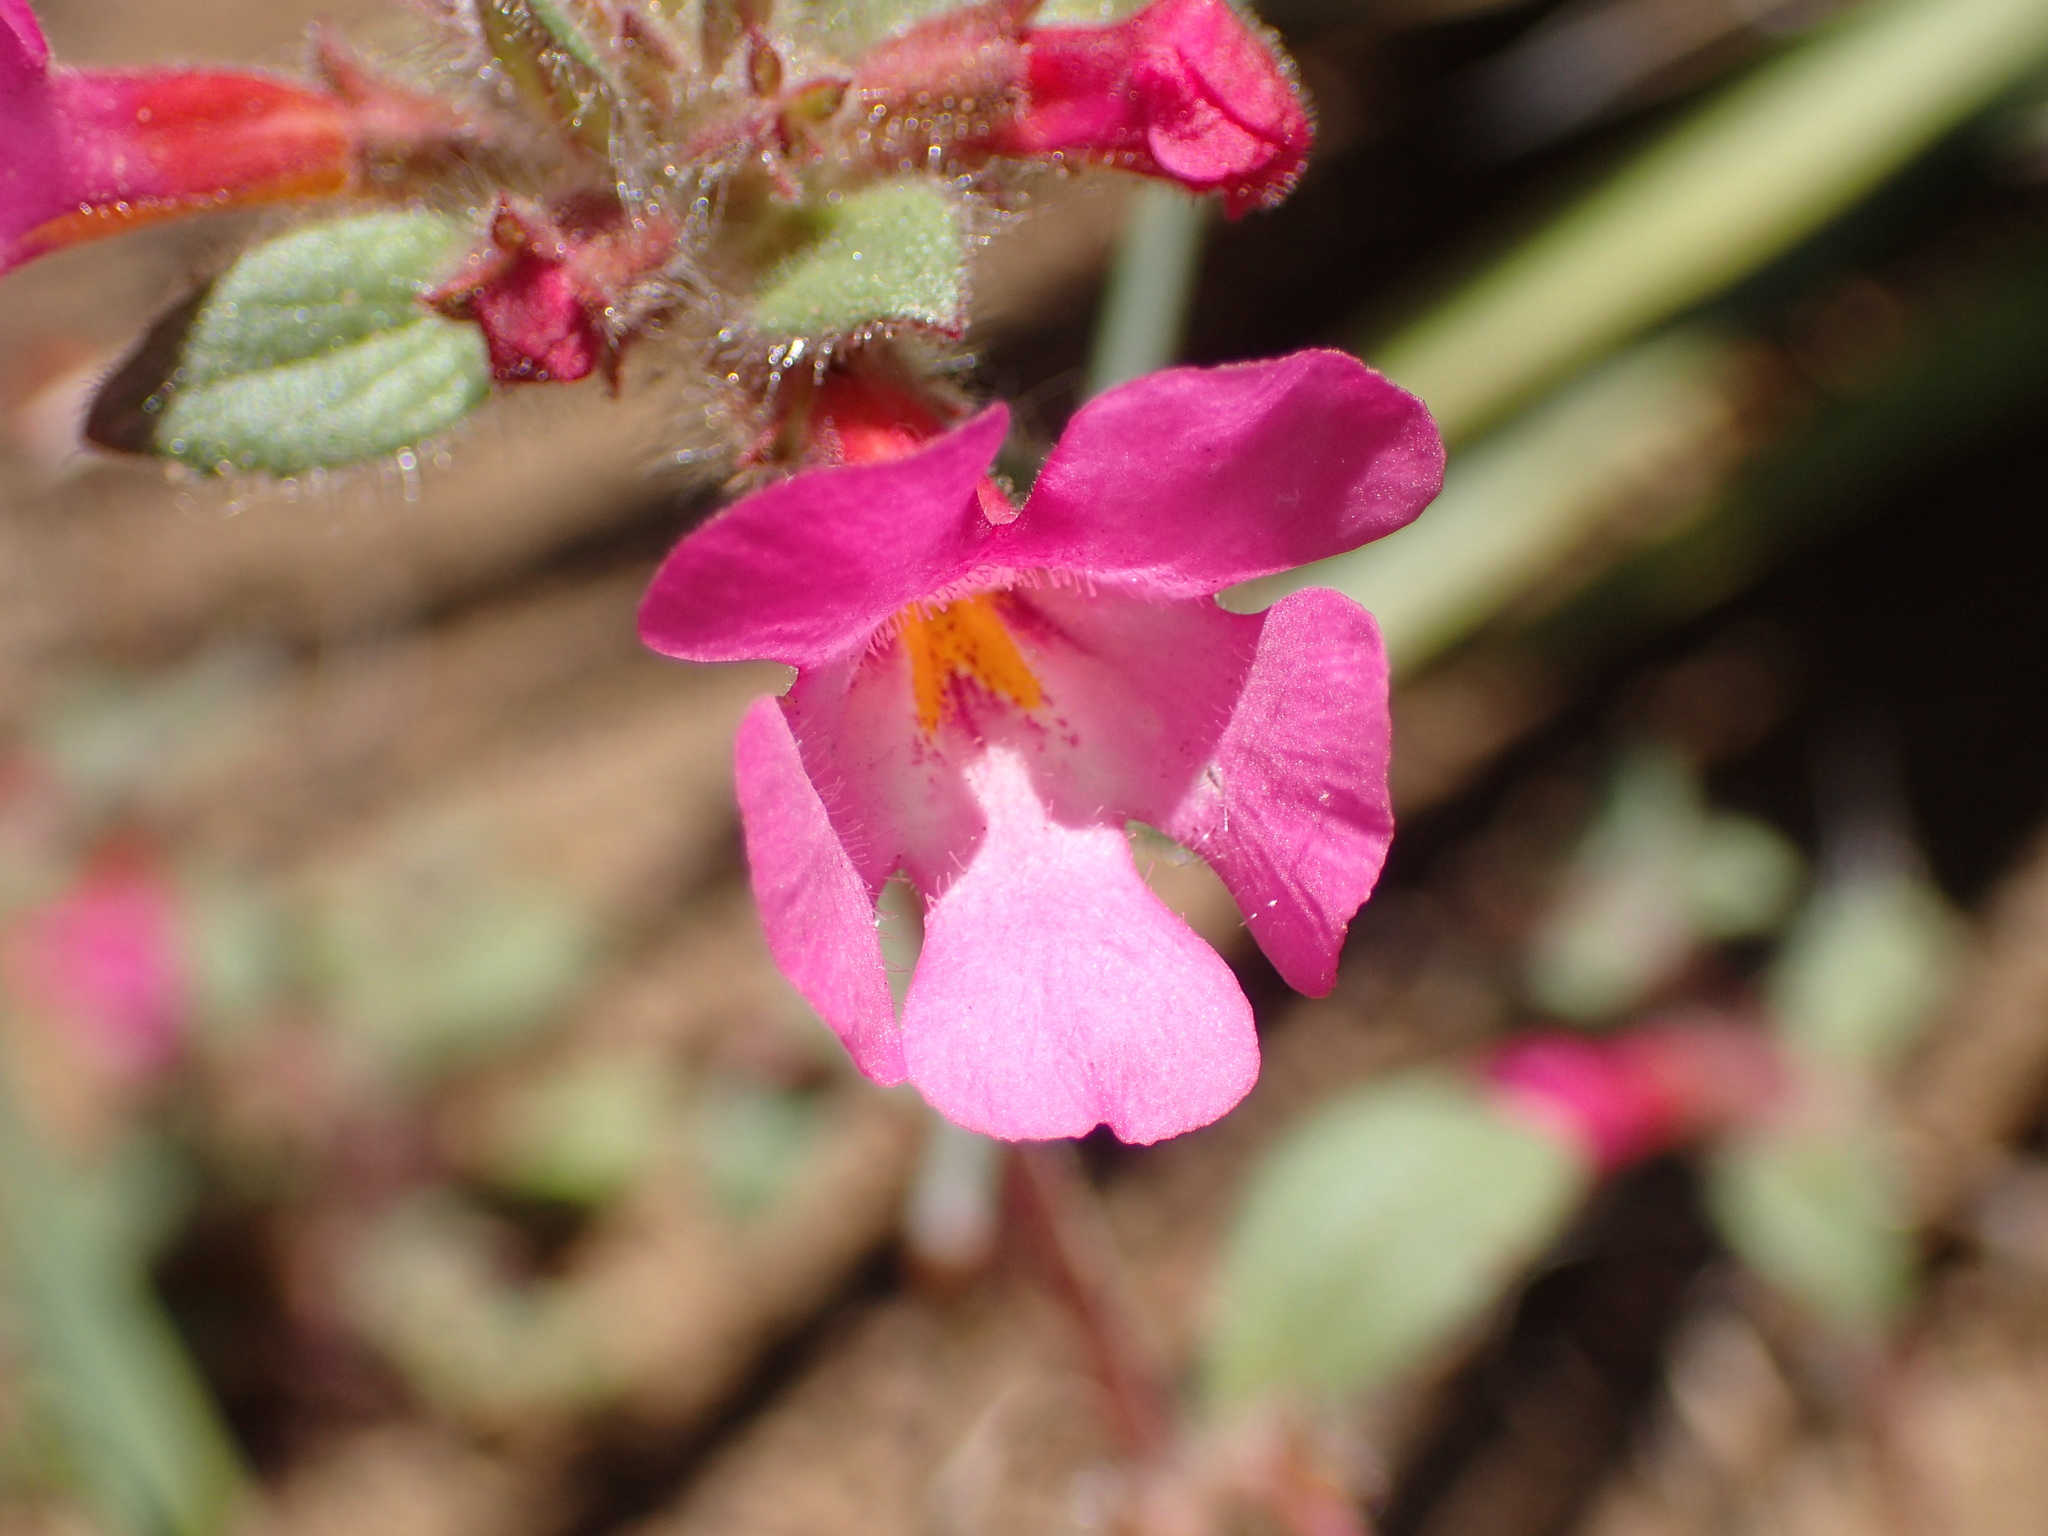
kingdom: Plantae
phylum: Tracheophyta
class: Magnoliopsida
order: Lamiales
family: Phrymaceae
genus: Diplacus
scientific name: Diplacus johnstonii
